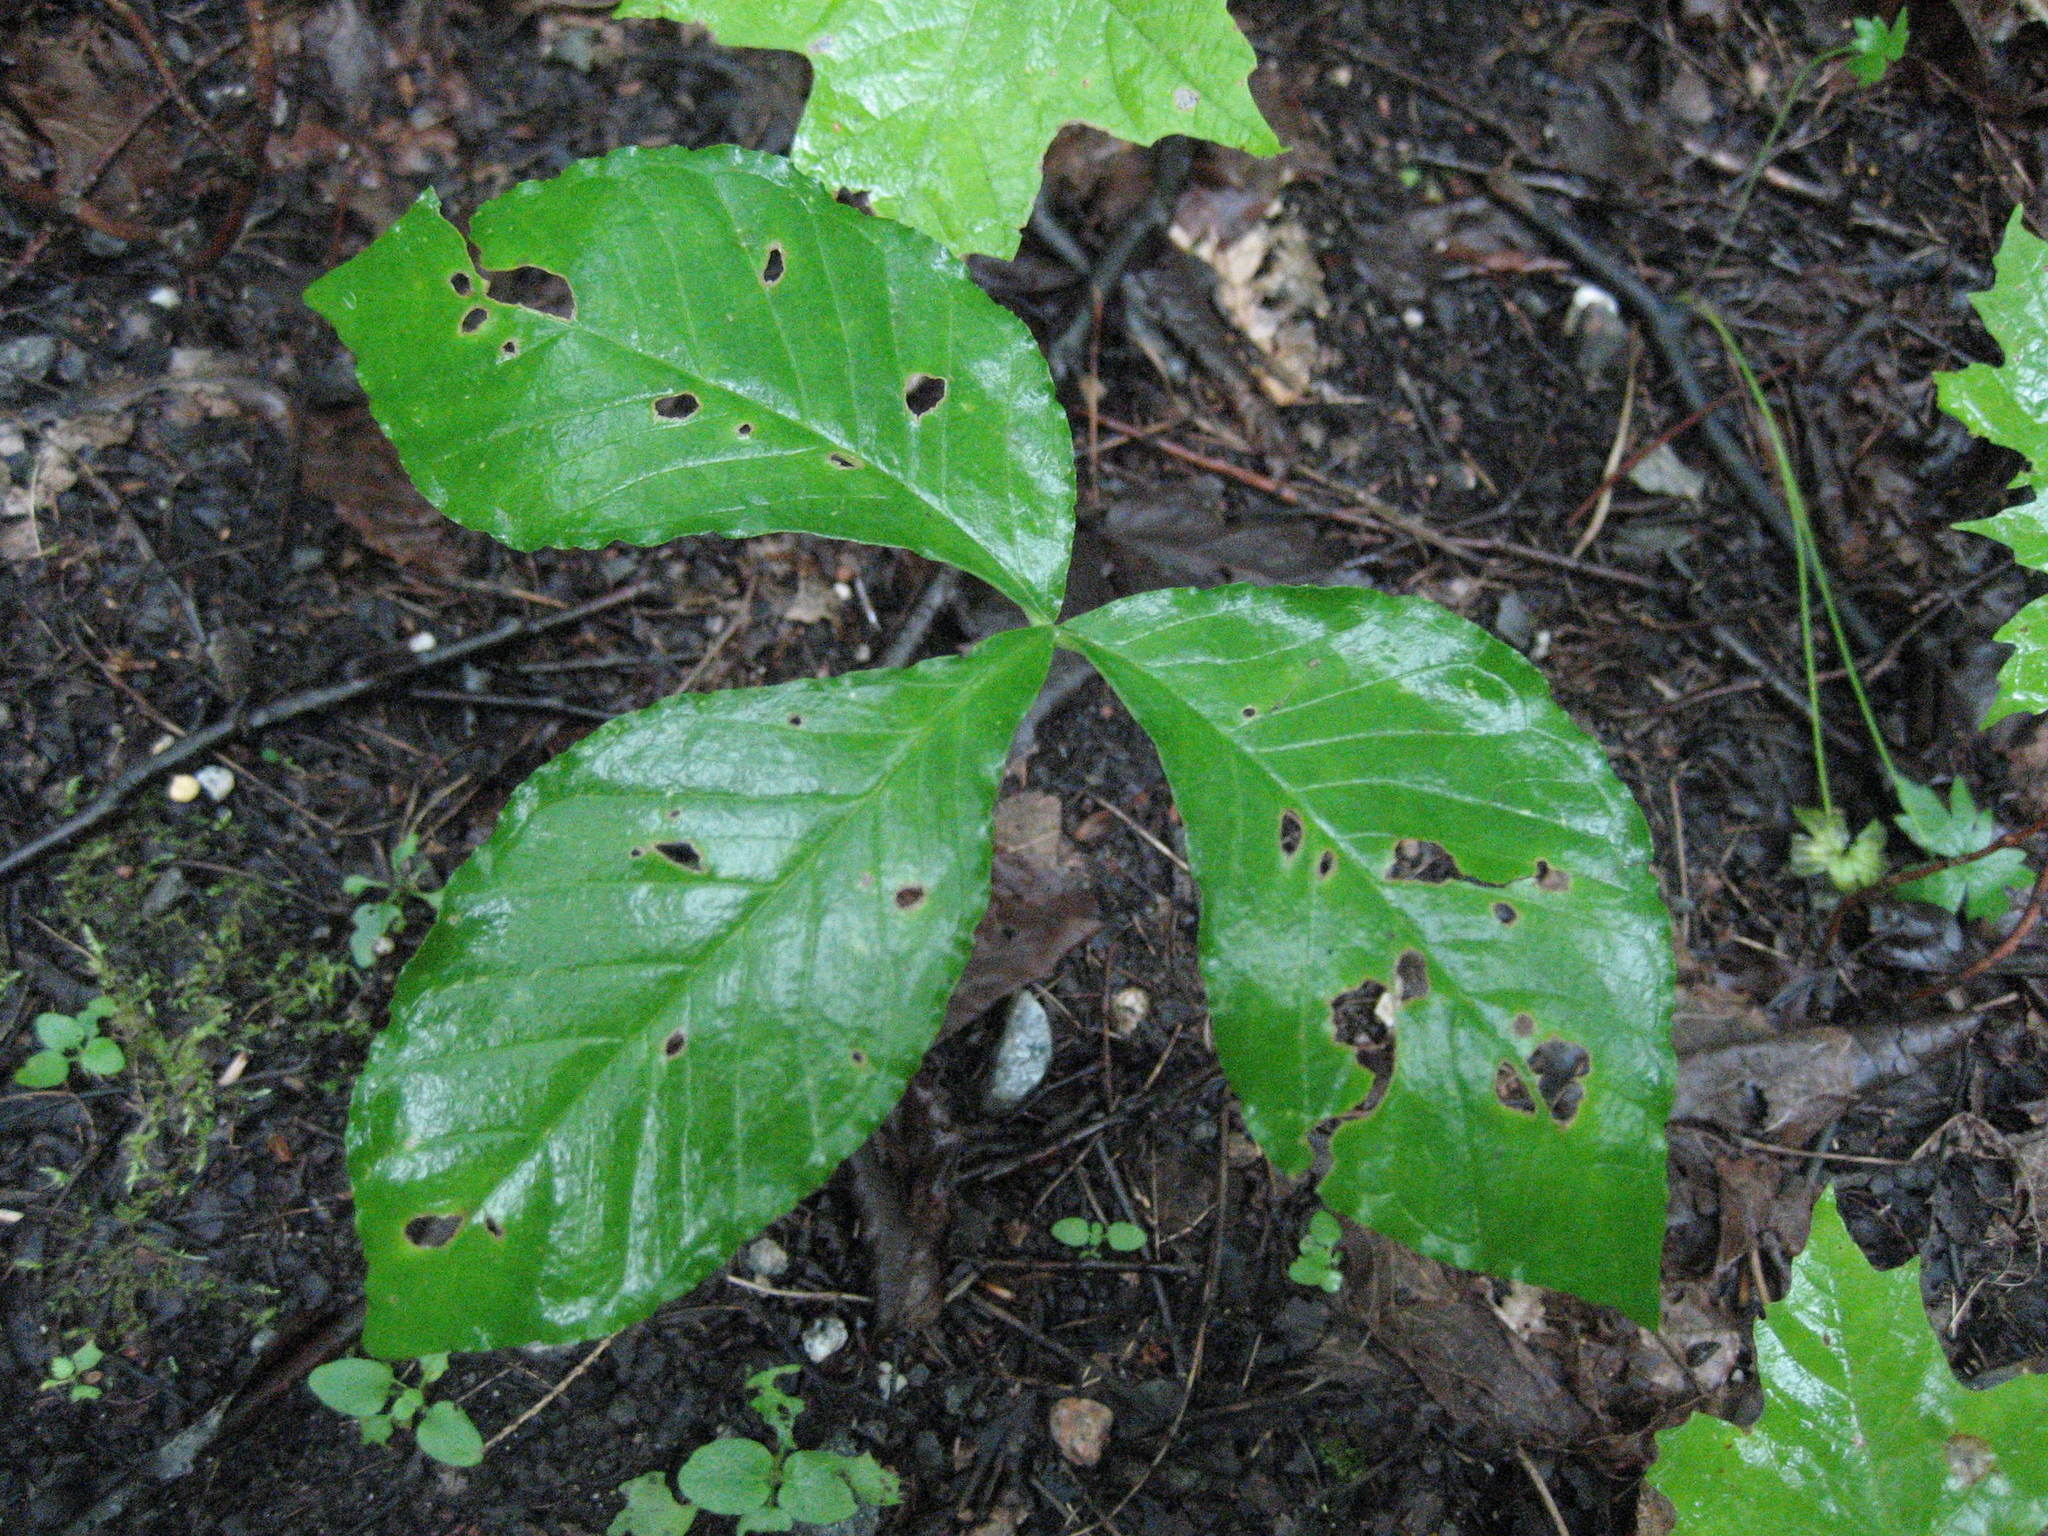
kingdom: Plantae
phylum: Tracheophyta
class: Liliopsida
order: Alismatales
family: Araceae
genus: Arisaema
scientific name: Arisaema triphyllum
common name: Jack-in-the-pulpit
